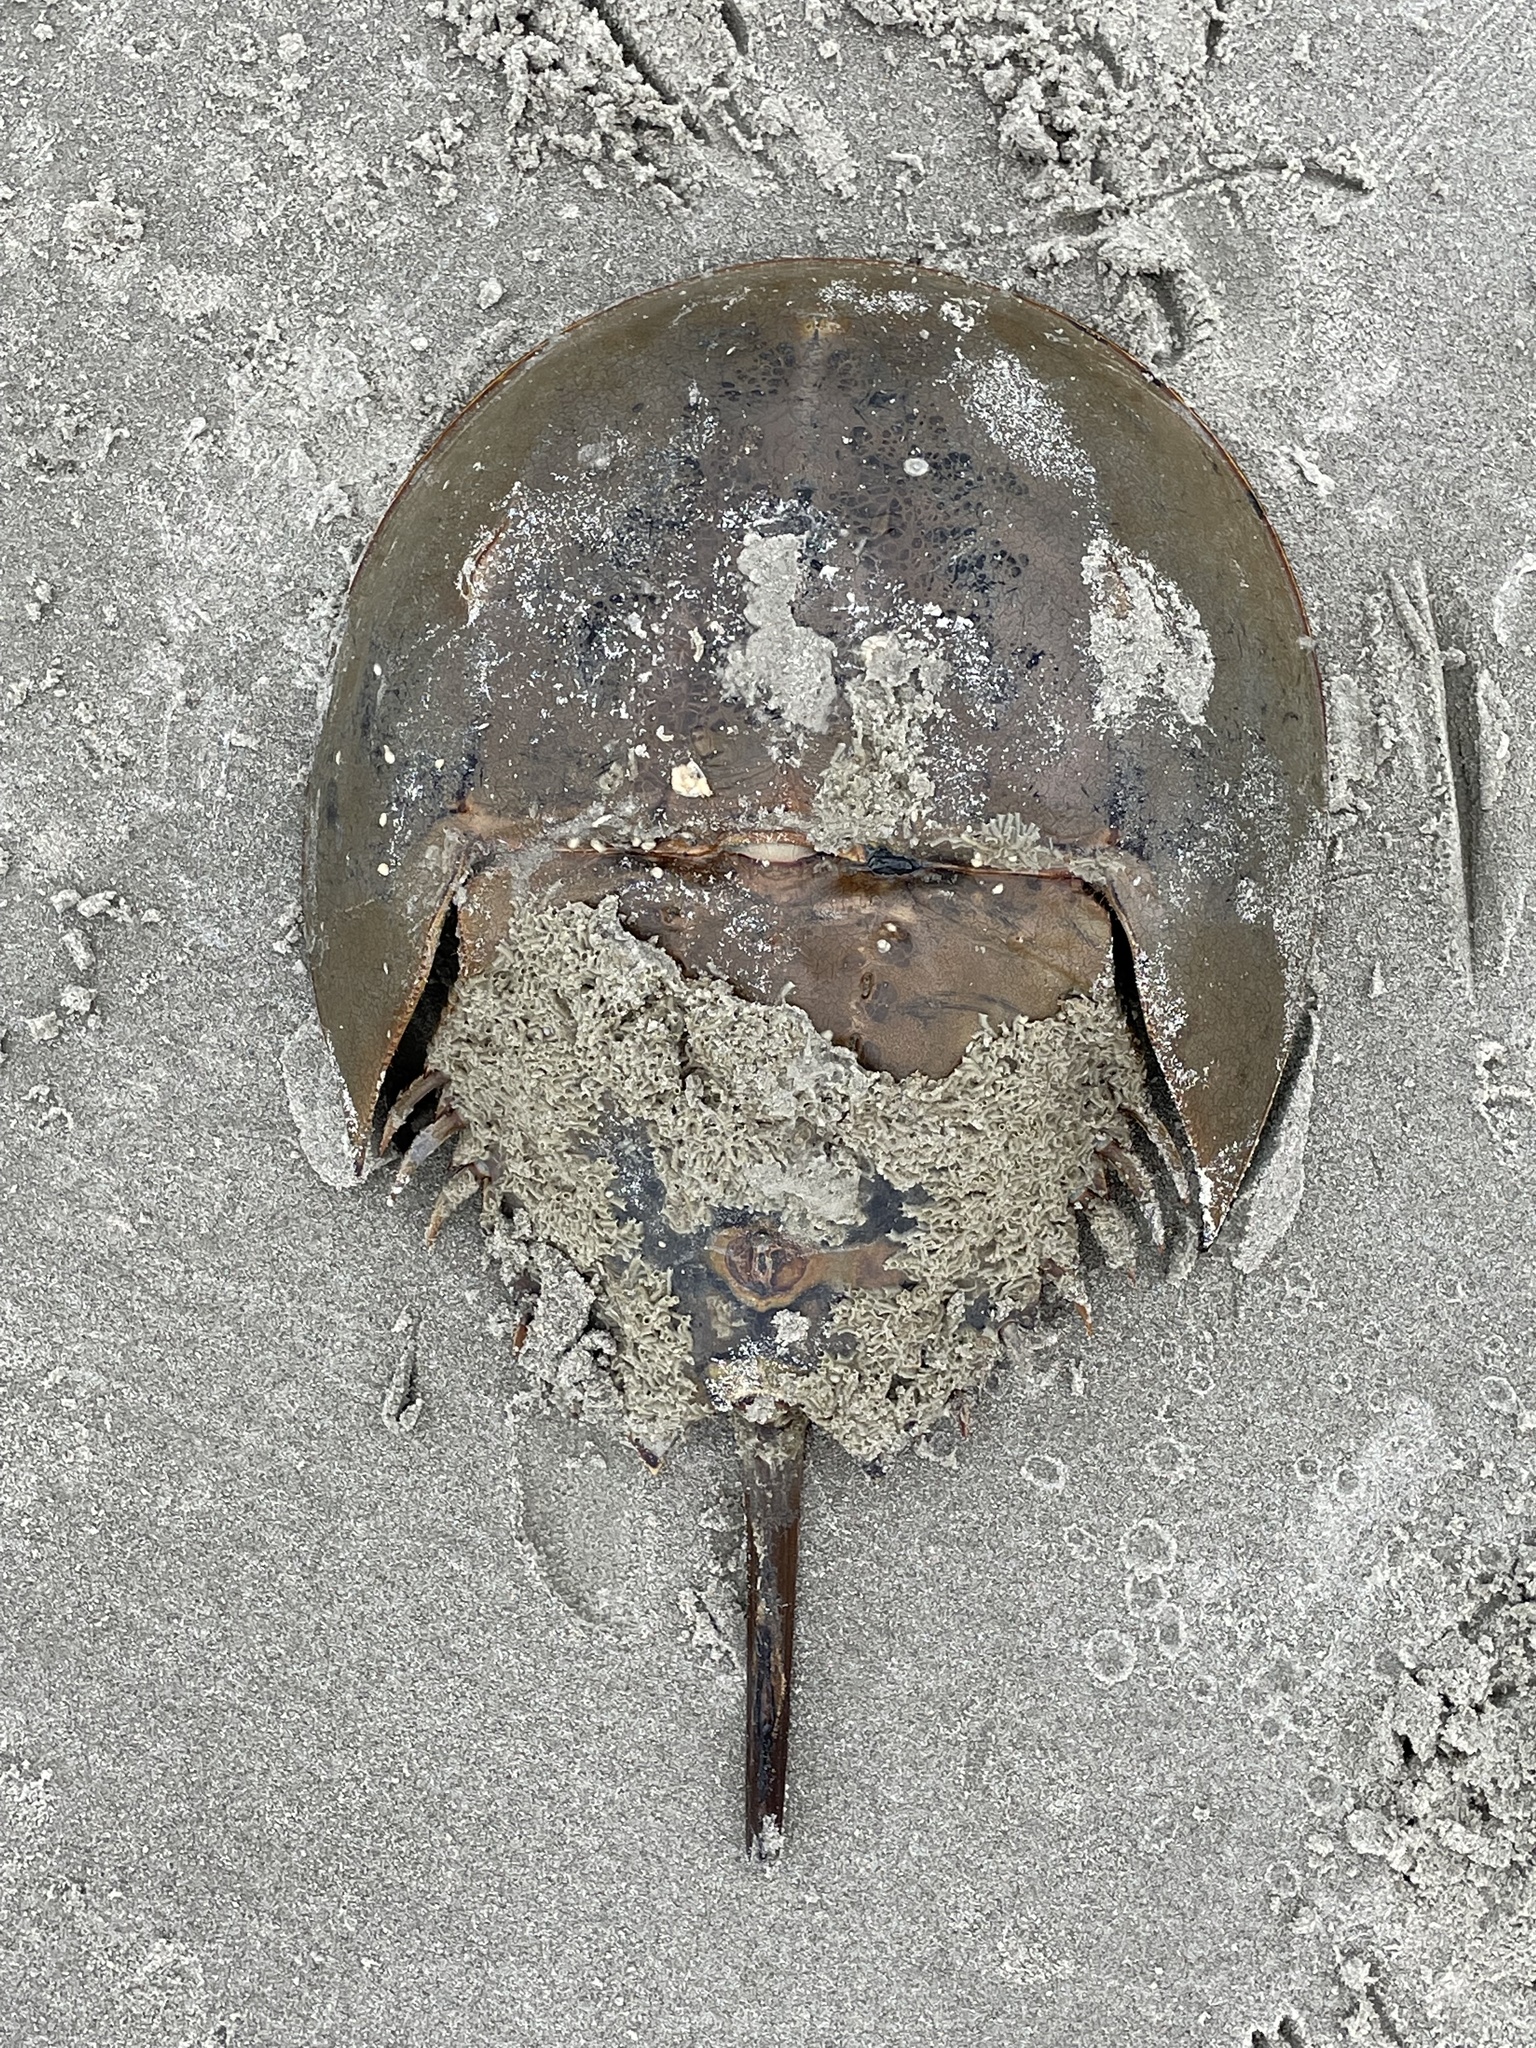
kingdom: Animalia
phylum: Arthropoda
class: Merostomata
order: Xiphosurida
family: Limulidae
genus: Limulus
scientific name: Limulus polyphemus
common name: Horseshoe crab
